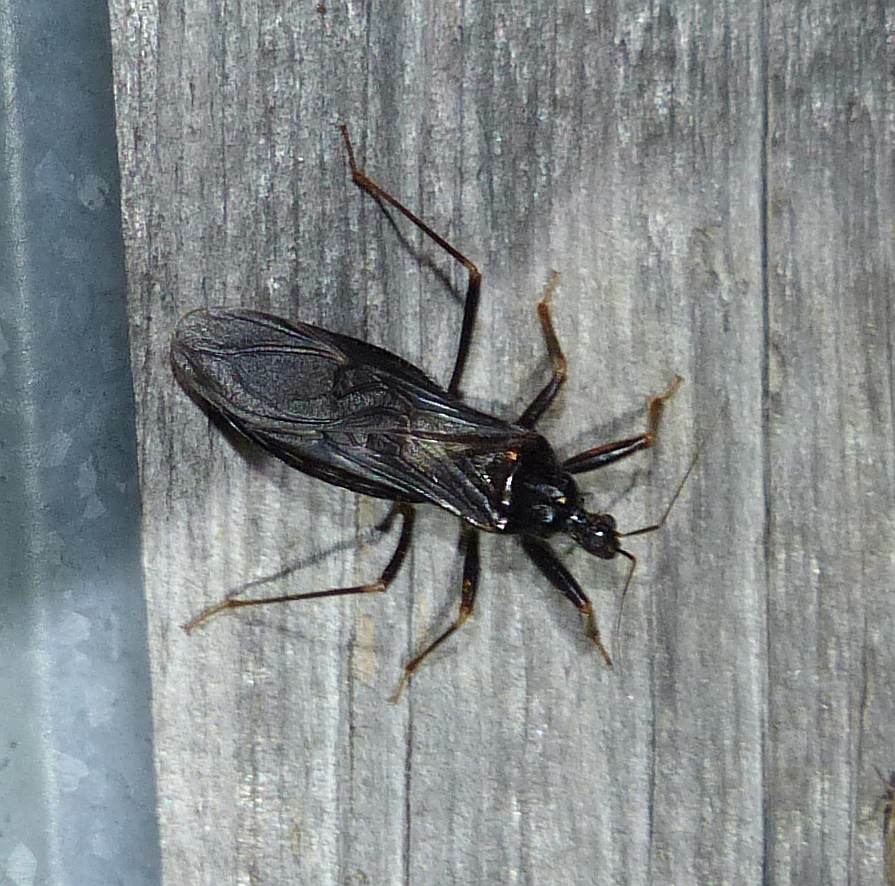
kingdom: Animalia
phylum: Arthropoda
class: Insecta
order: Hemiptera
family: Reduviidae
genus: Reduvius
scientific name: Reduvius personatus
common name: Masked hunter
